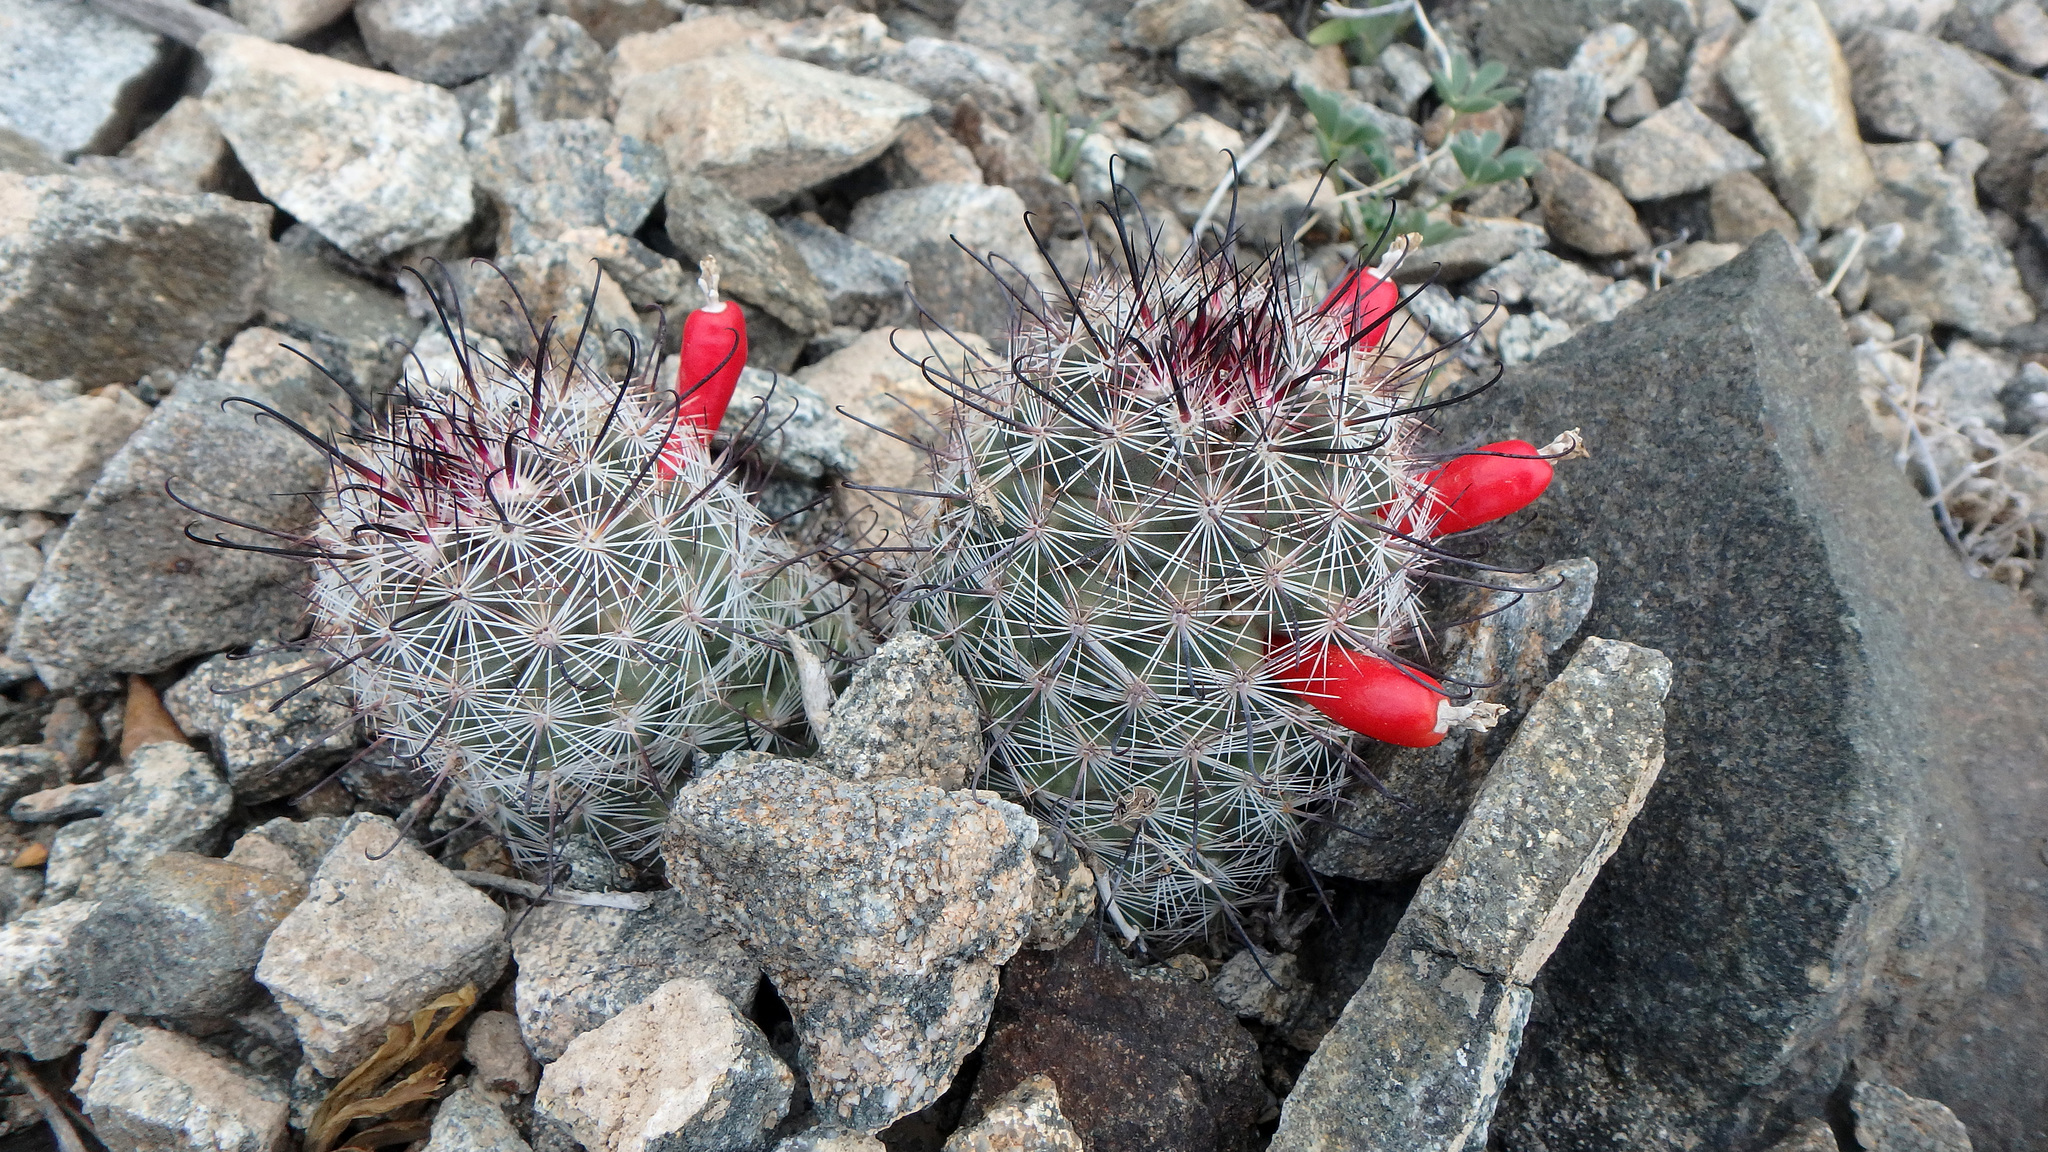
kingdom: Plantae
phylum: Tracheophyta
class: Magnoliopsida
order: Caryophyllales
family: Cactaceae
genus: Cochemiea
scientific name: Cochemiea grahamii
